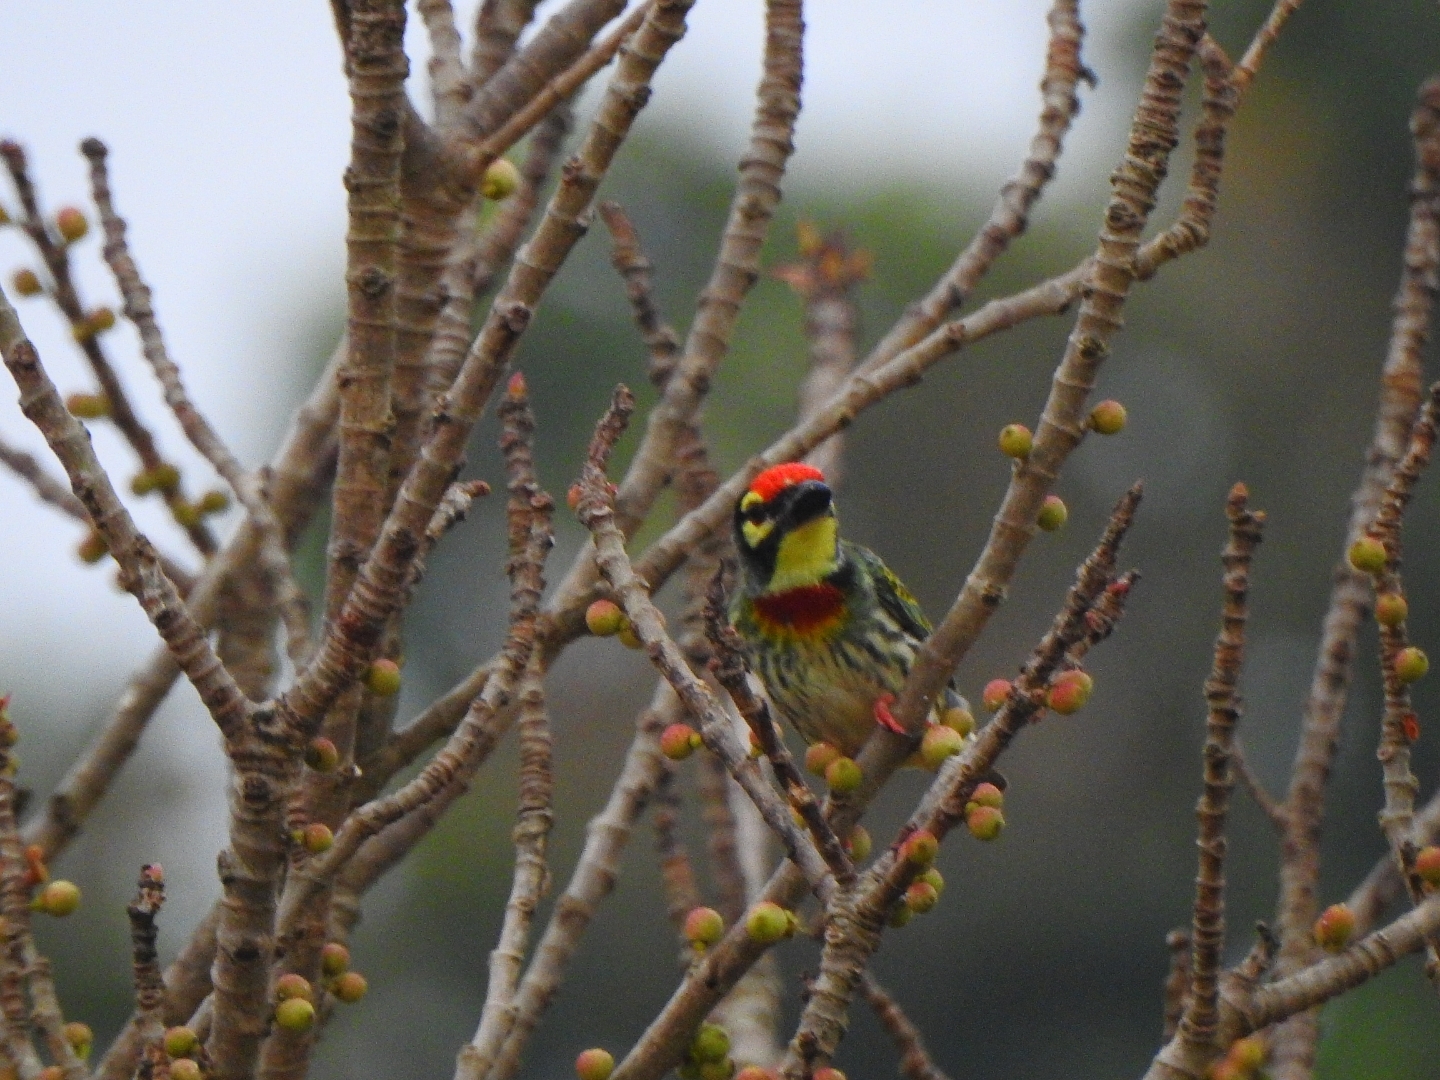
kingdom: Animalia
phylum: Chordata
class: Aves
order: Piciformes
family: Megalaimidae
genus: Psilopogon
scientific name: Psilopogon haemacephalus
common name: Coppersmith barbet
